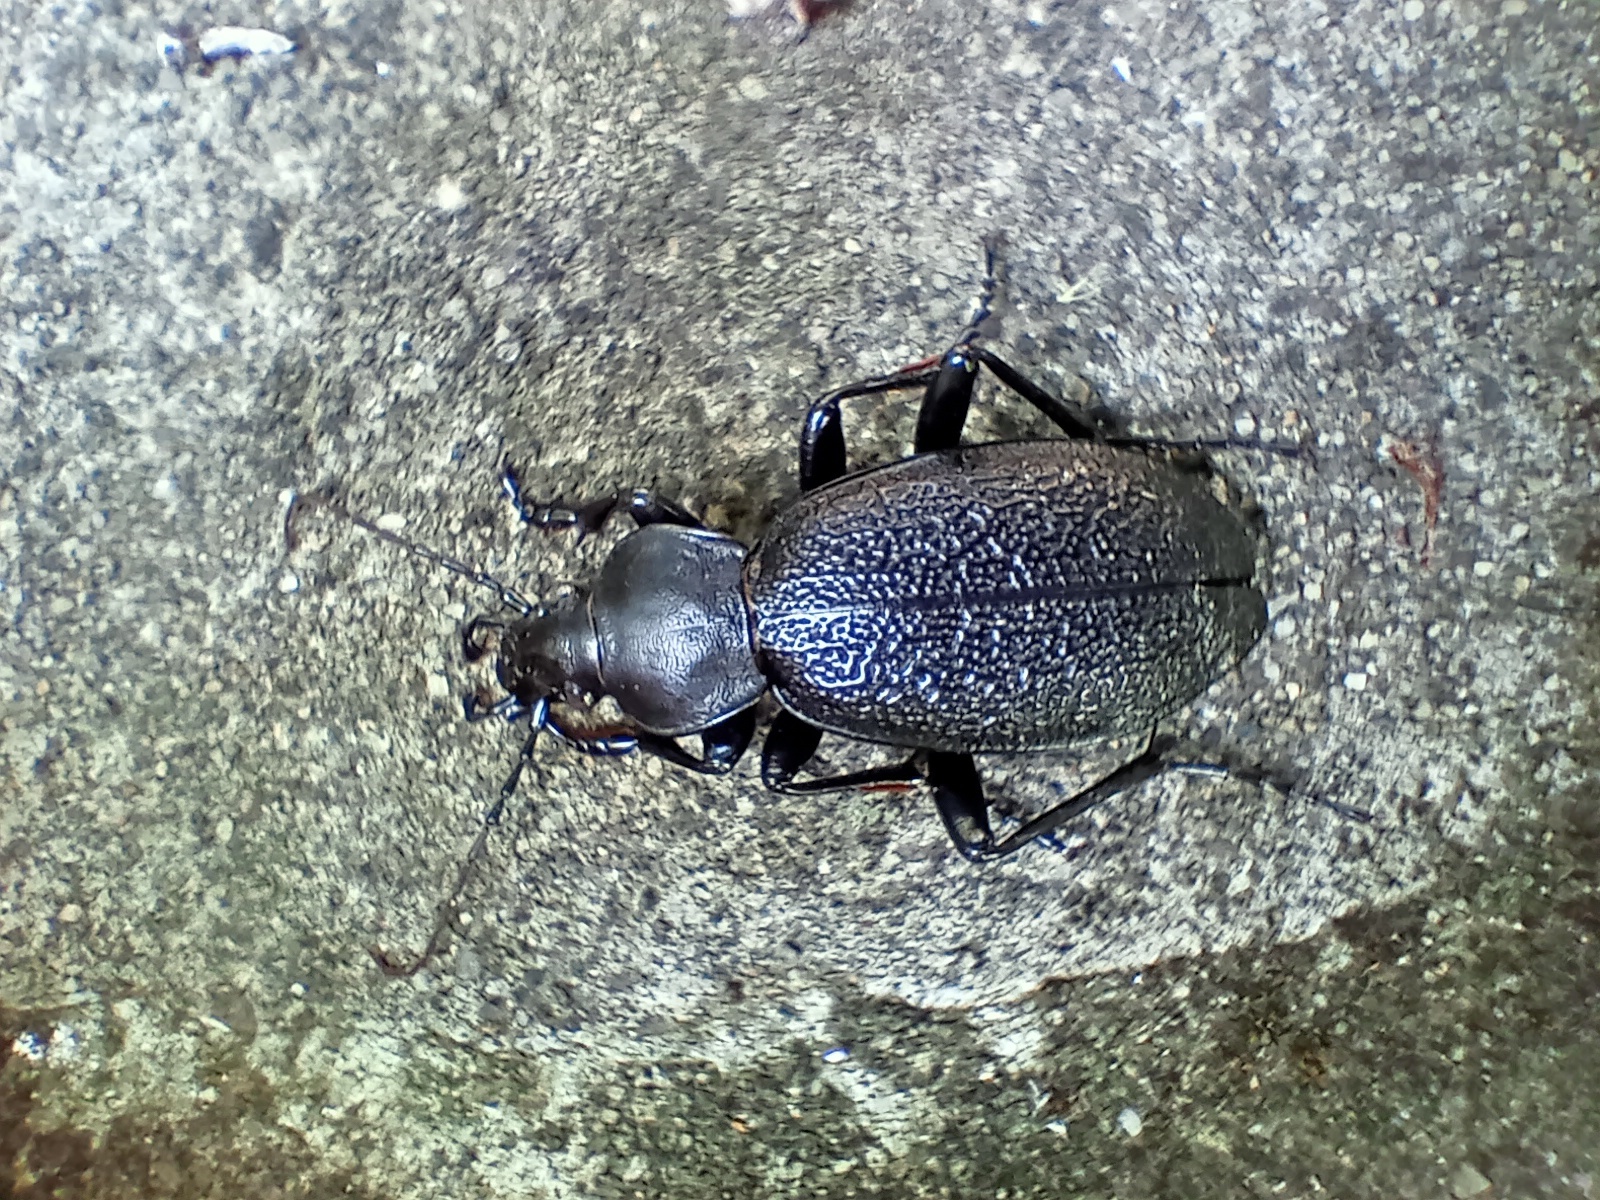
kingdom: Animalia
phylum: Arthropoda
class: Insecta
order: Coleoptera
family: Carabidae
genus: Carabus
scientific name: Carabus coriaceus
